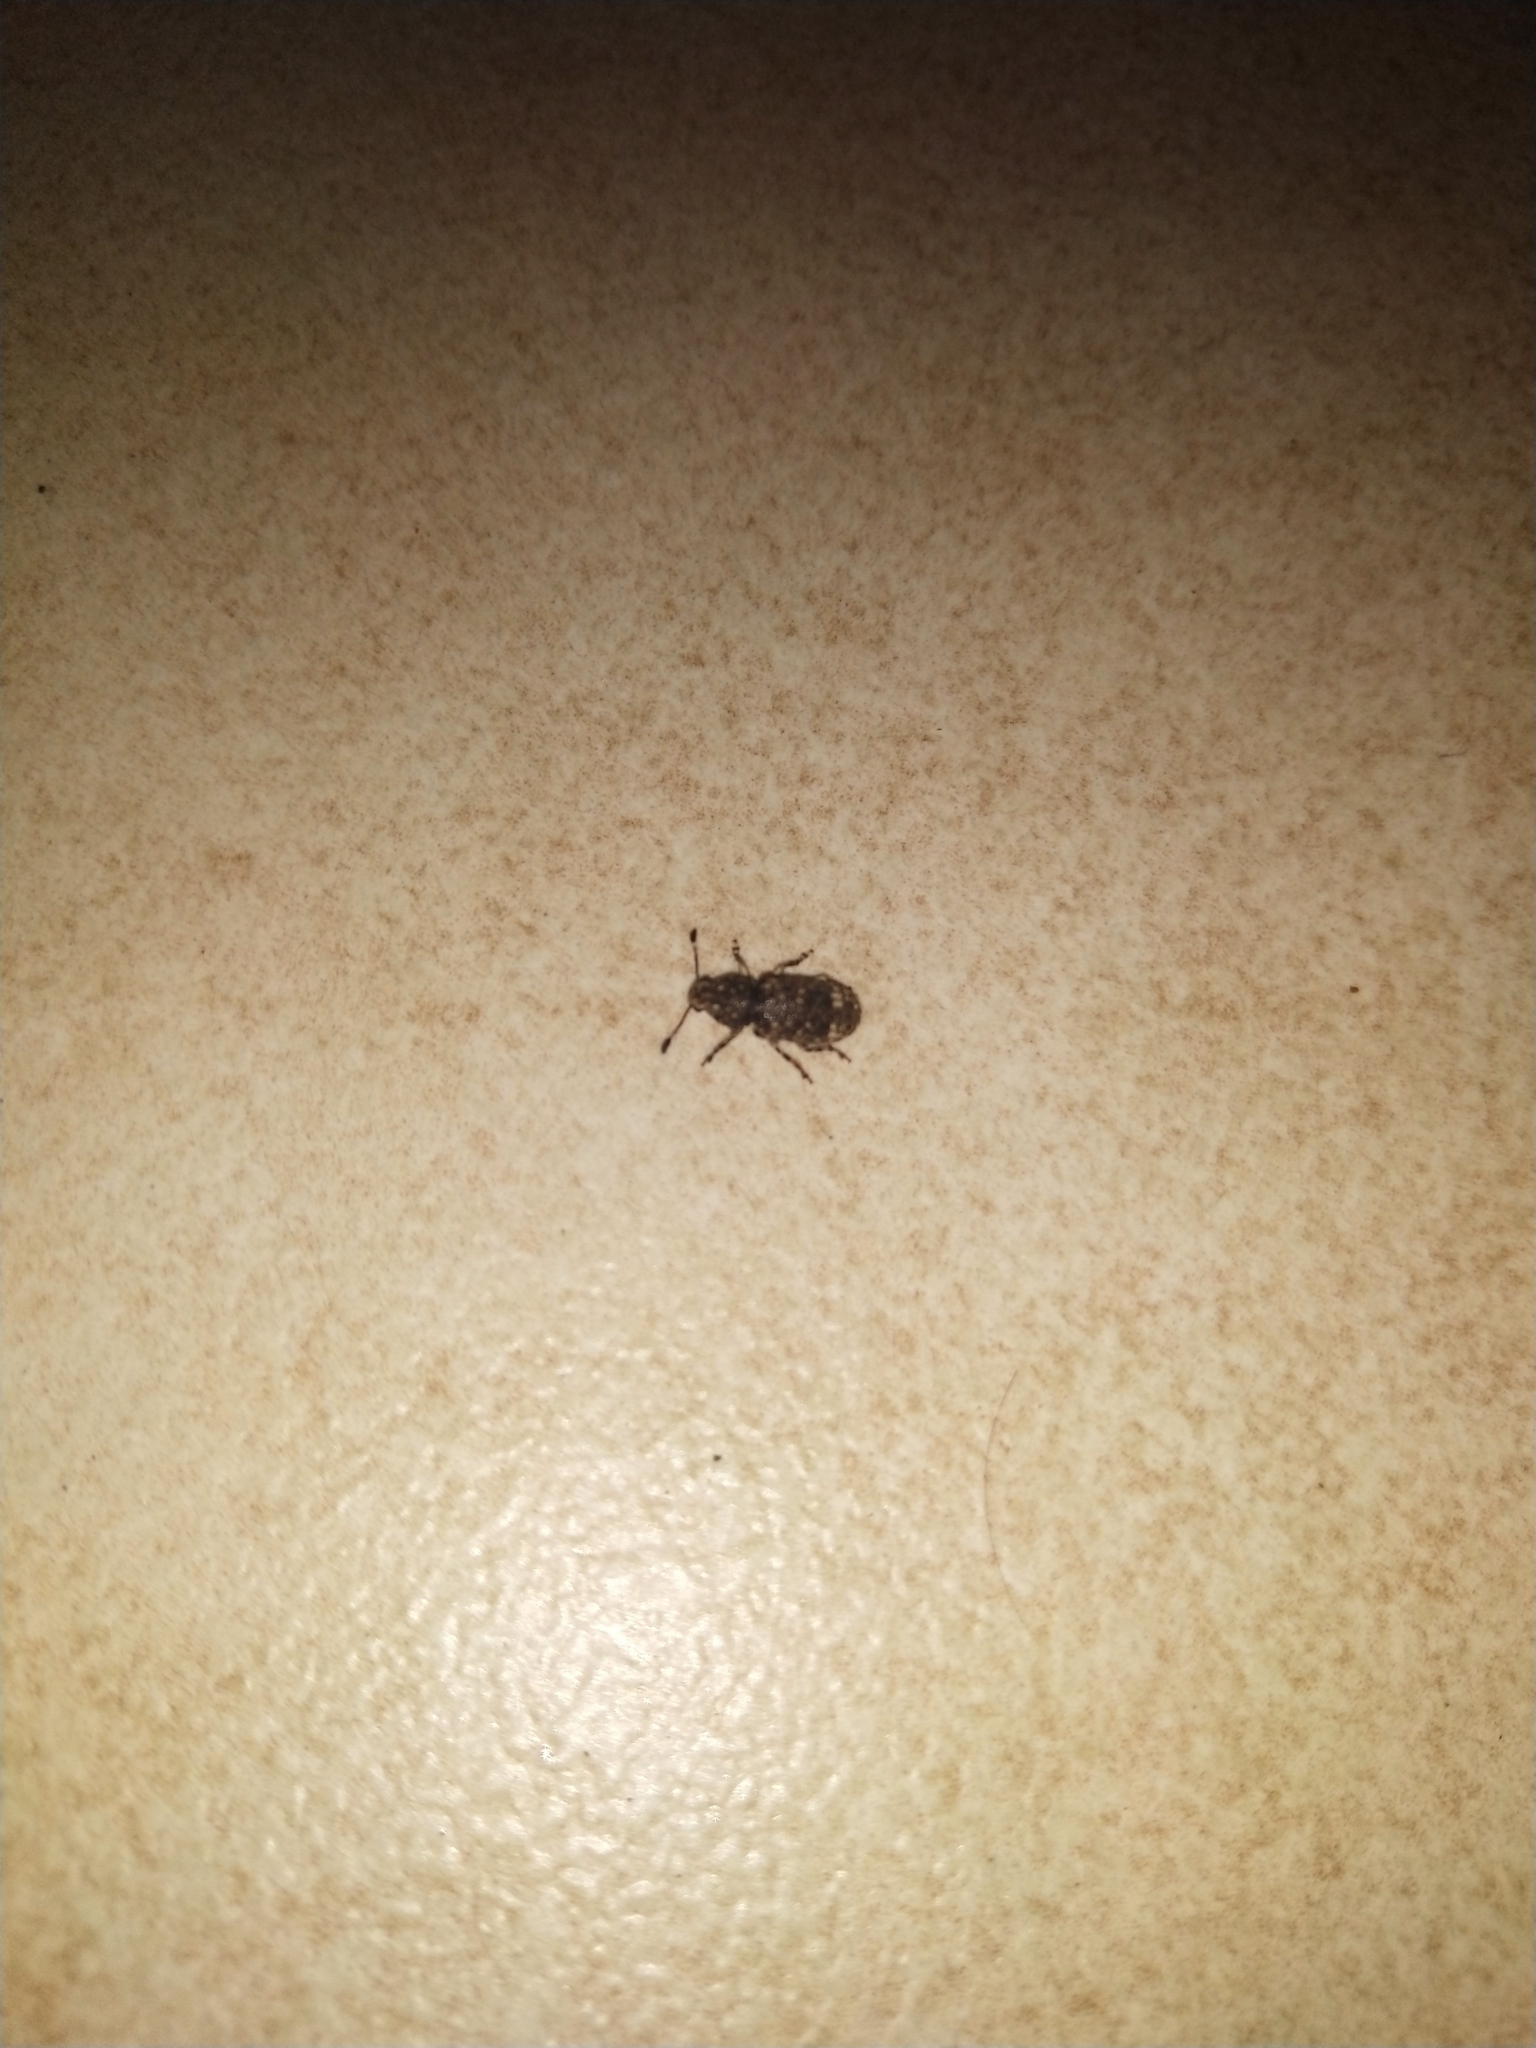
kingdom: Animalia
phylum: Arthropoda
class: Insecta
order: Coleoptera
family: Anthribidae
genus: Eucorynus
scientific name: Eucorynus crassicornis
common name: Fungus weevil
